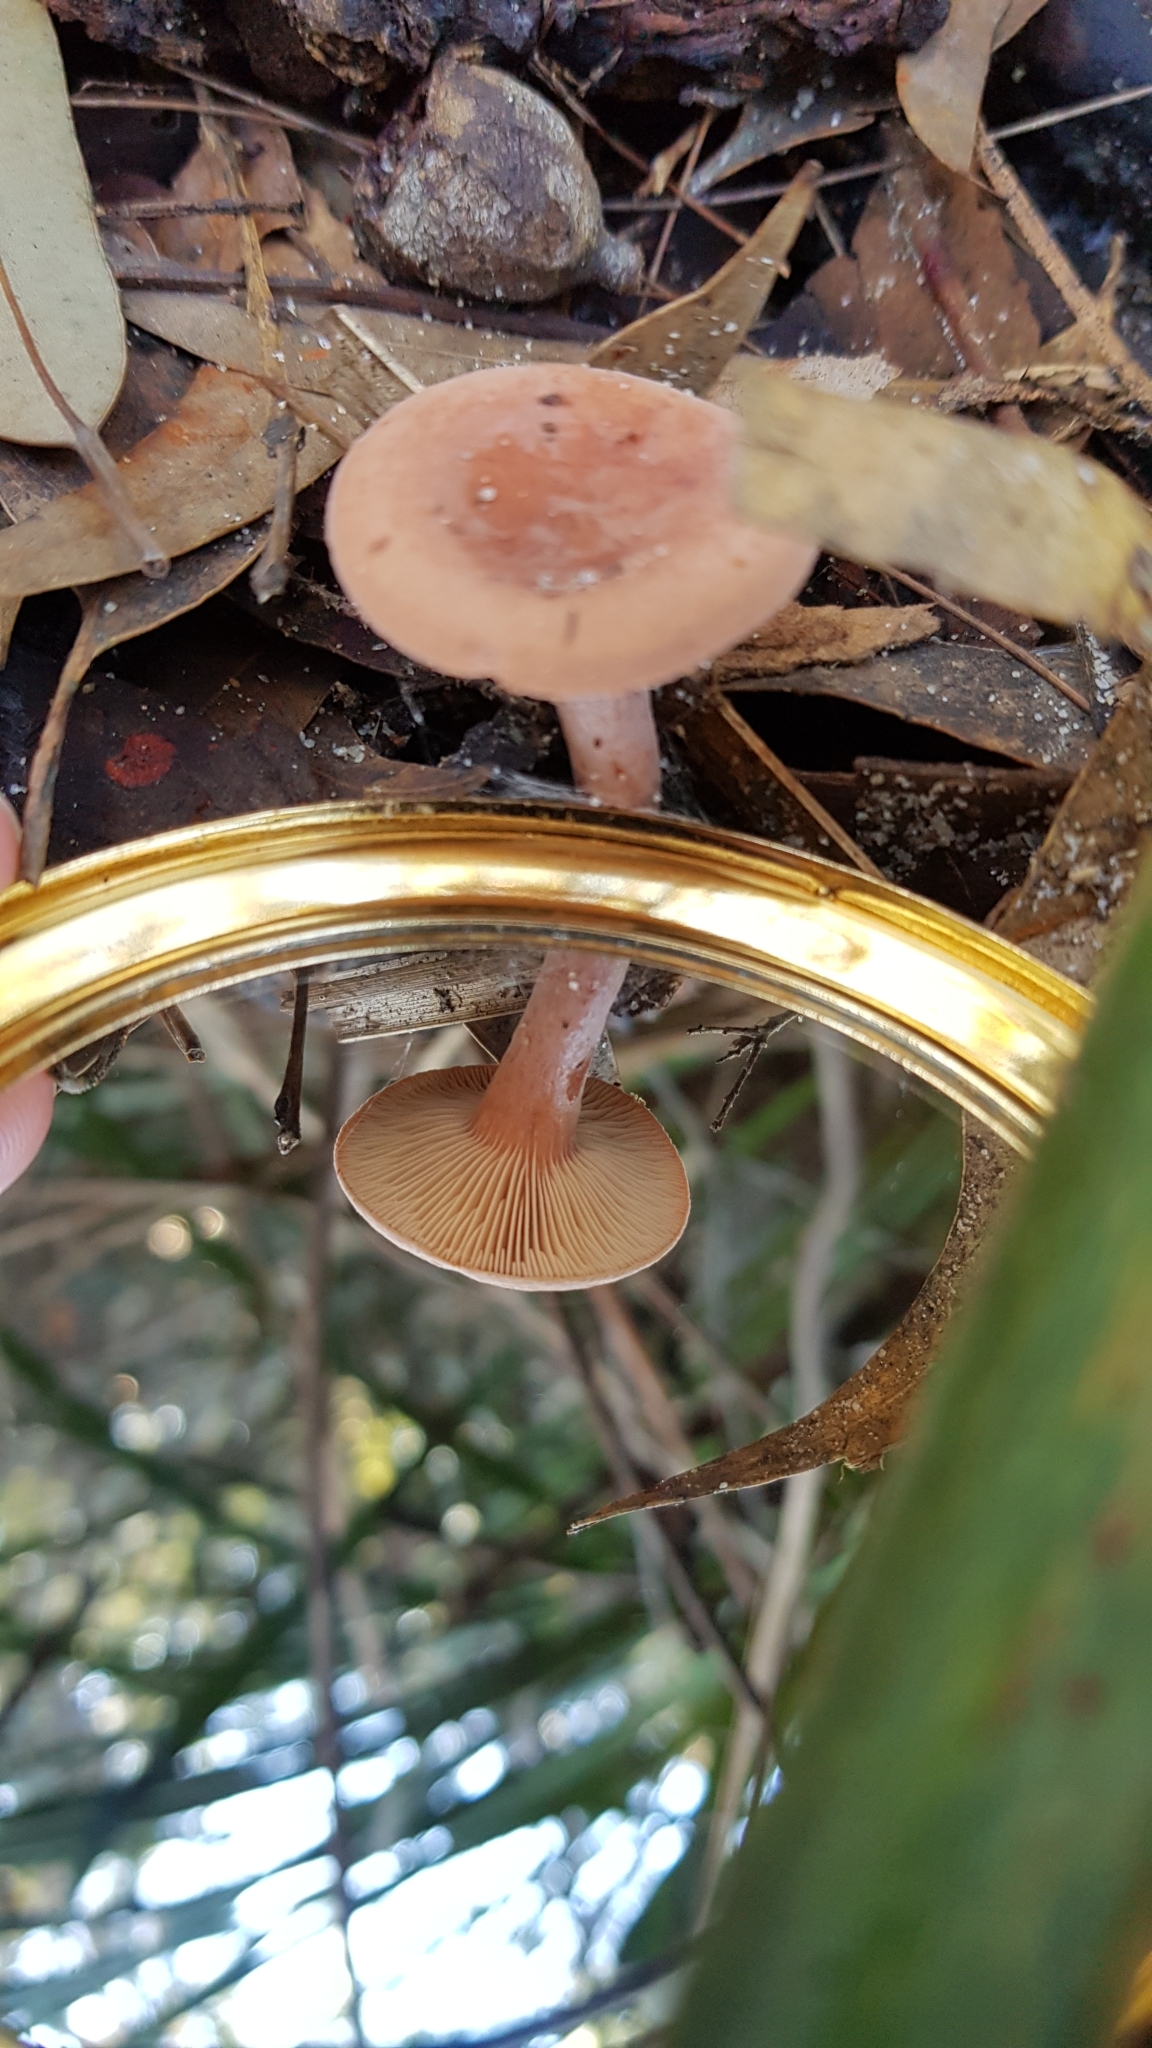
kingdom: Fungi
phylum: Basidiomycota
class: Agaricomycetes
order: Russulales
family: Russulaceae
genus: Lactarius
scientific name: Lactarius eucalypti
